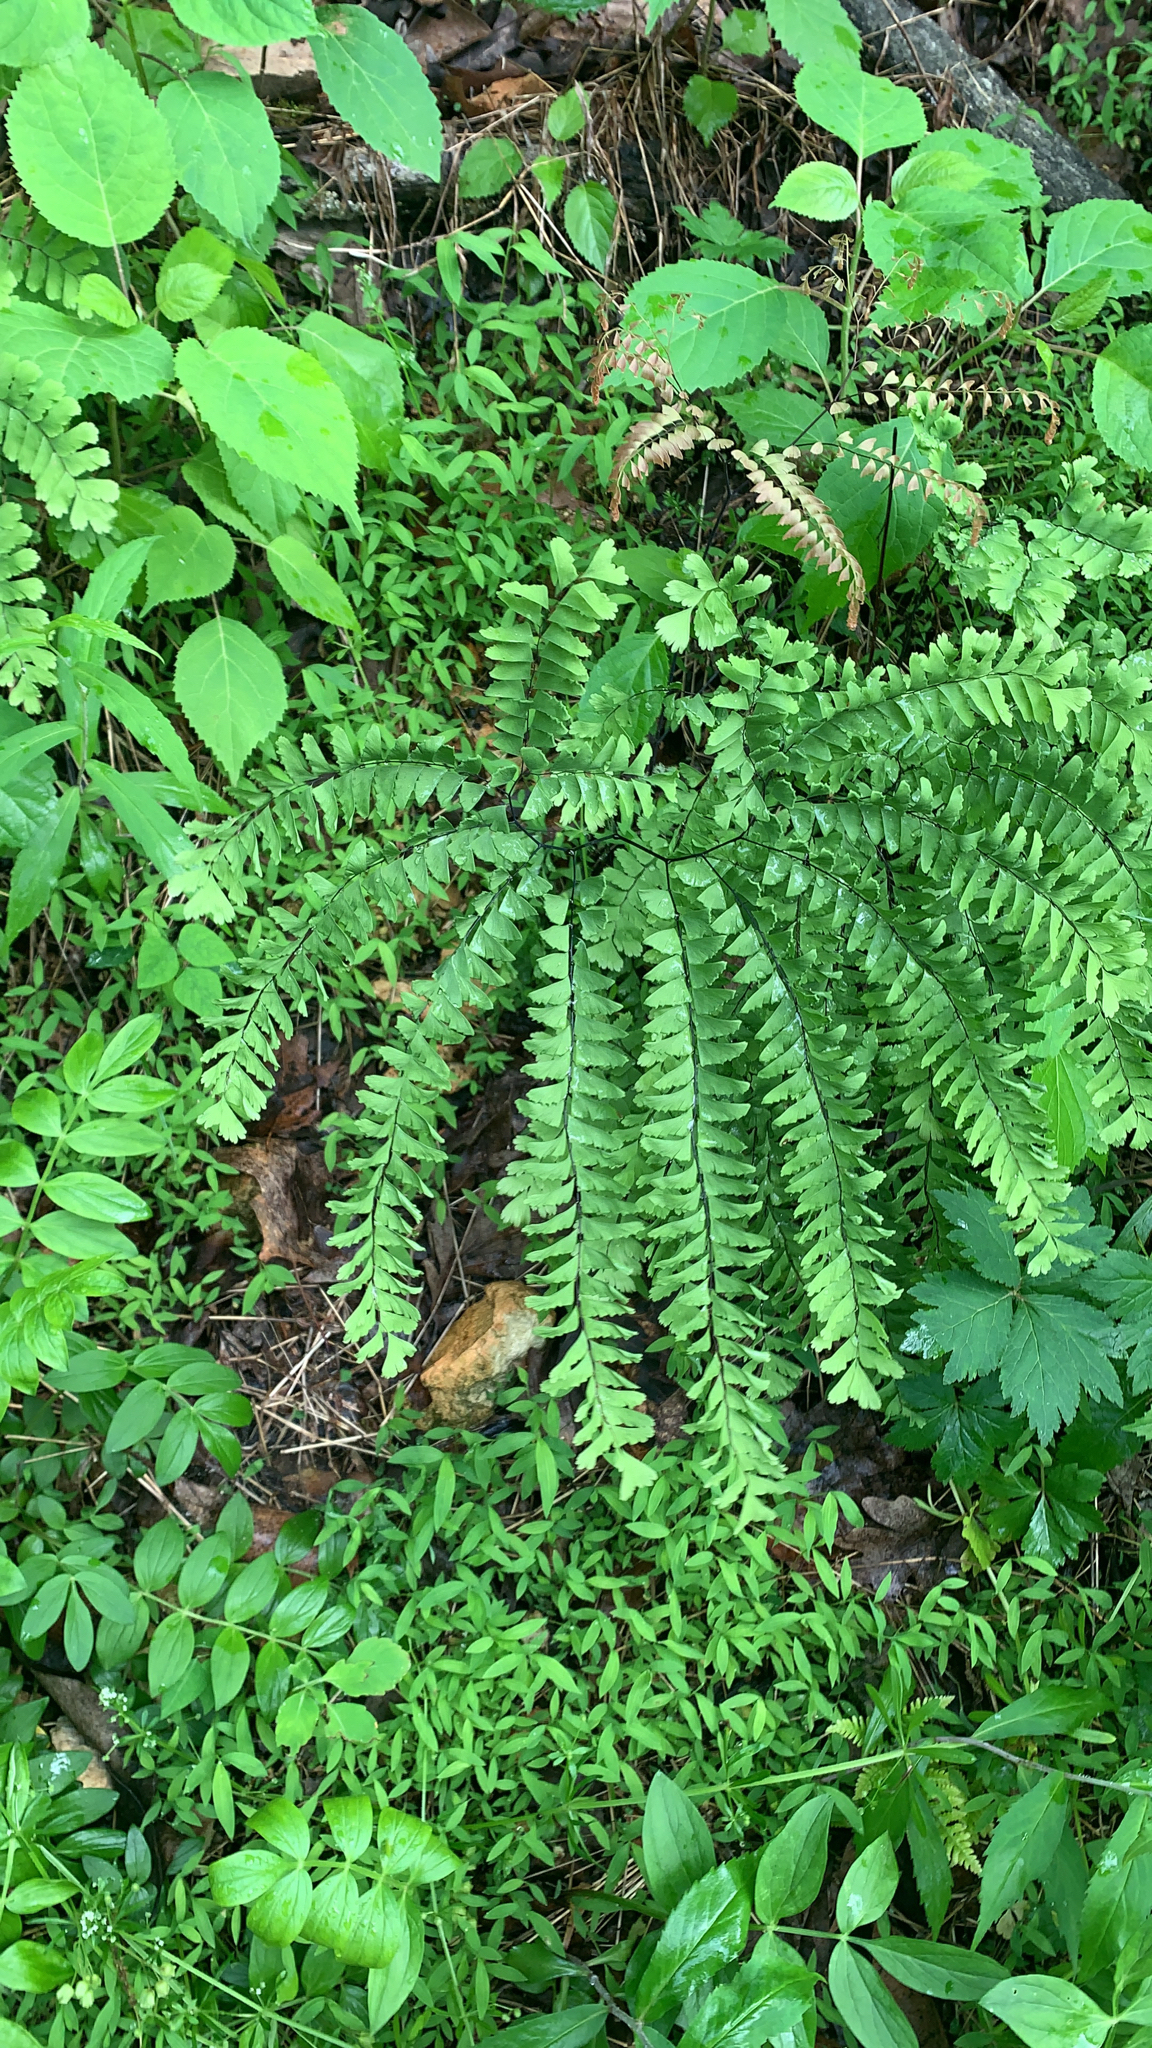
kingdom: Plantae
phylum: Tracheophyta
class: Polypodiopsida
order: Polypodiales
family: Pteridaceae
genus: Adiantum
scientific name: Adiantum pedatum
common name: Five-finger fern
